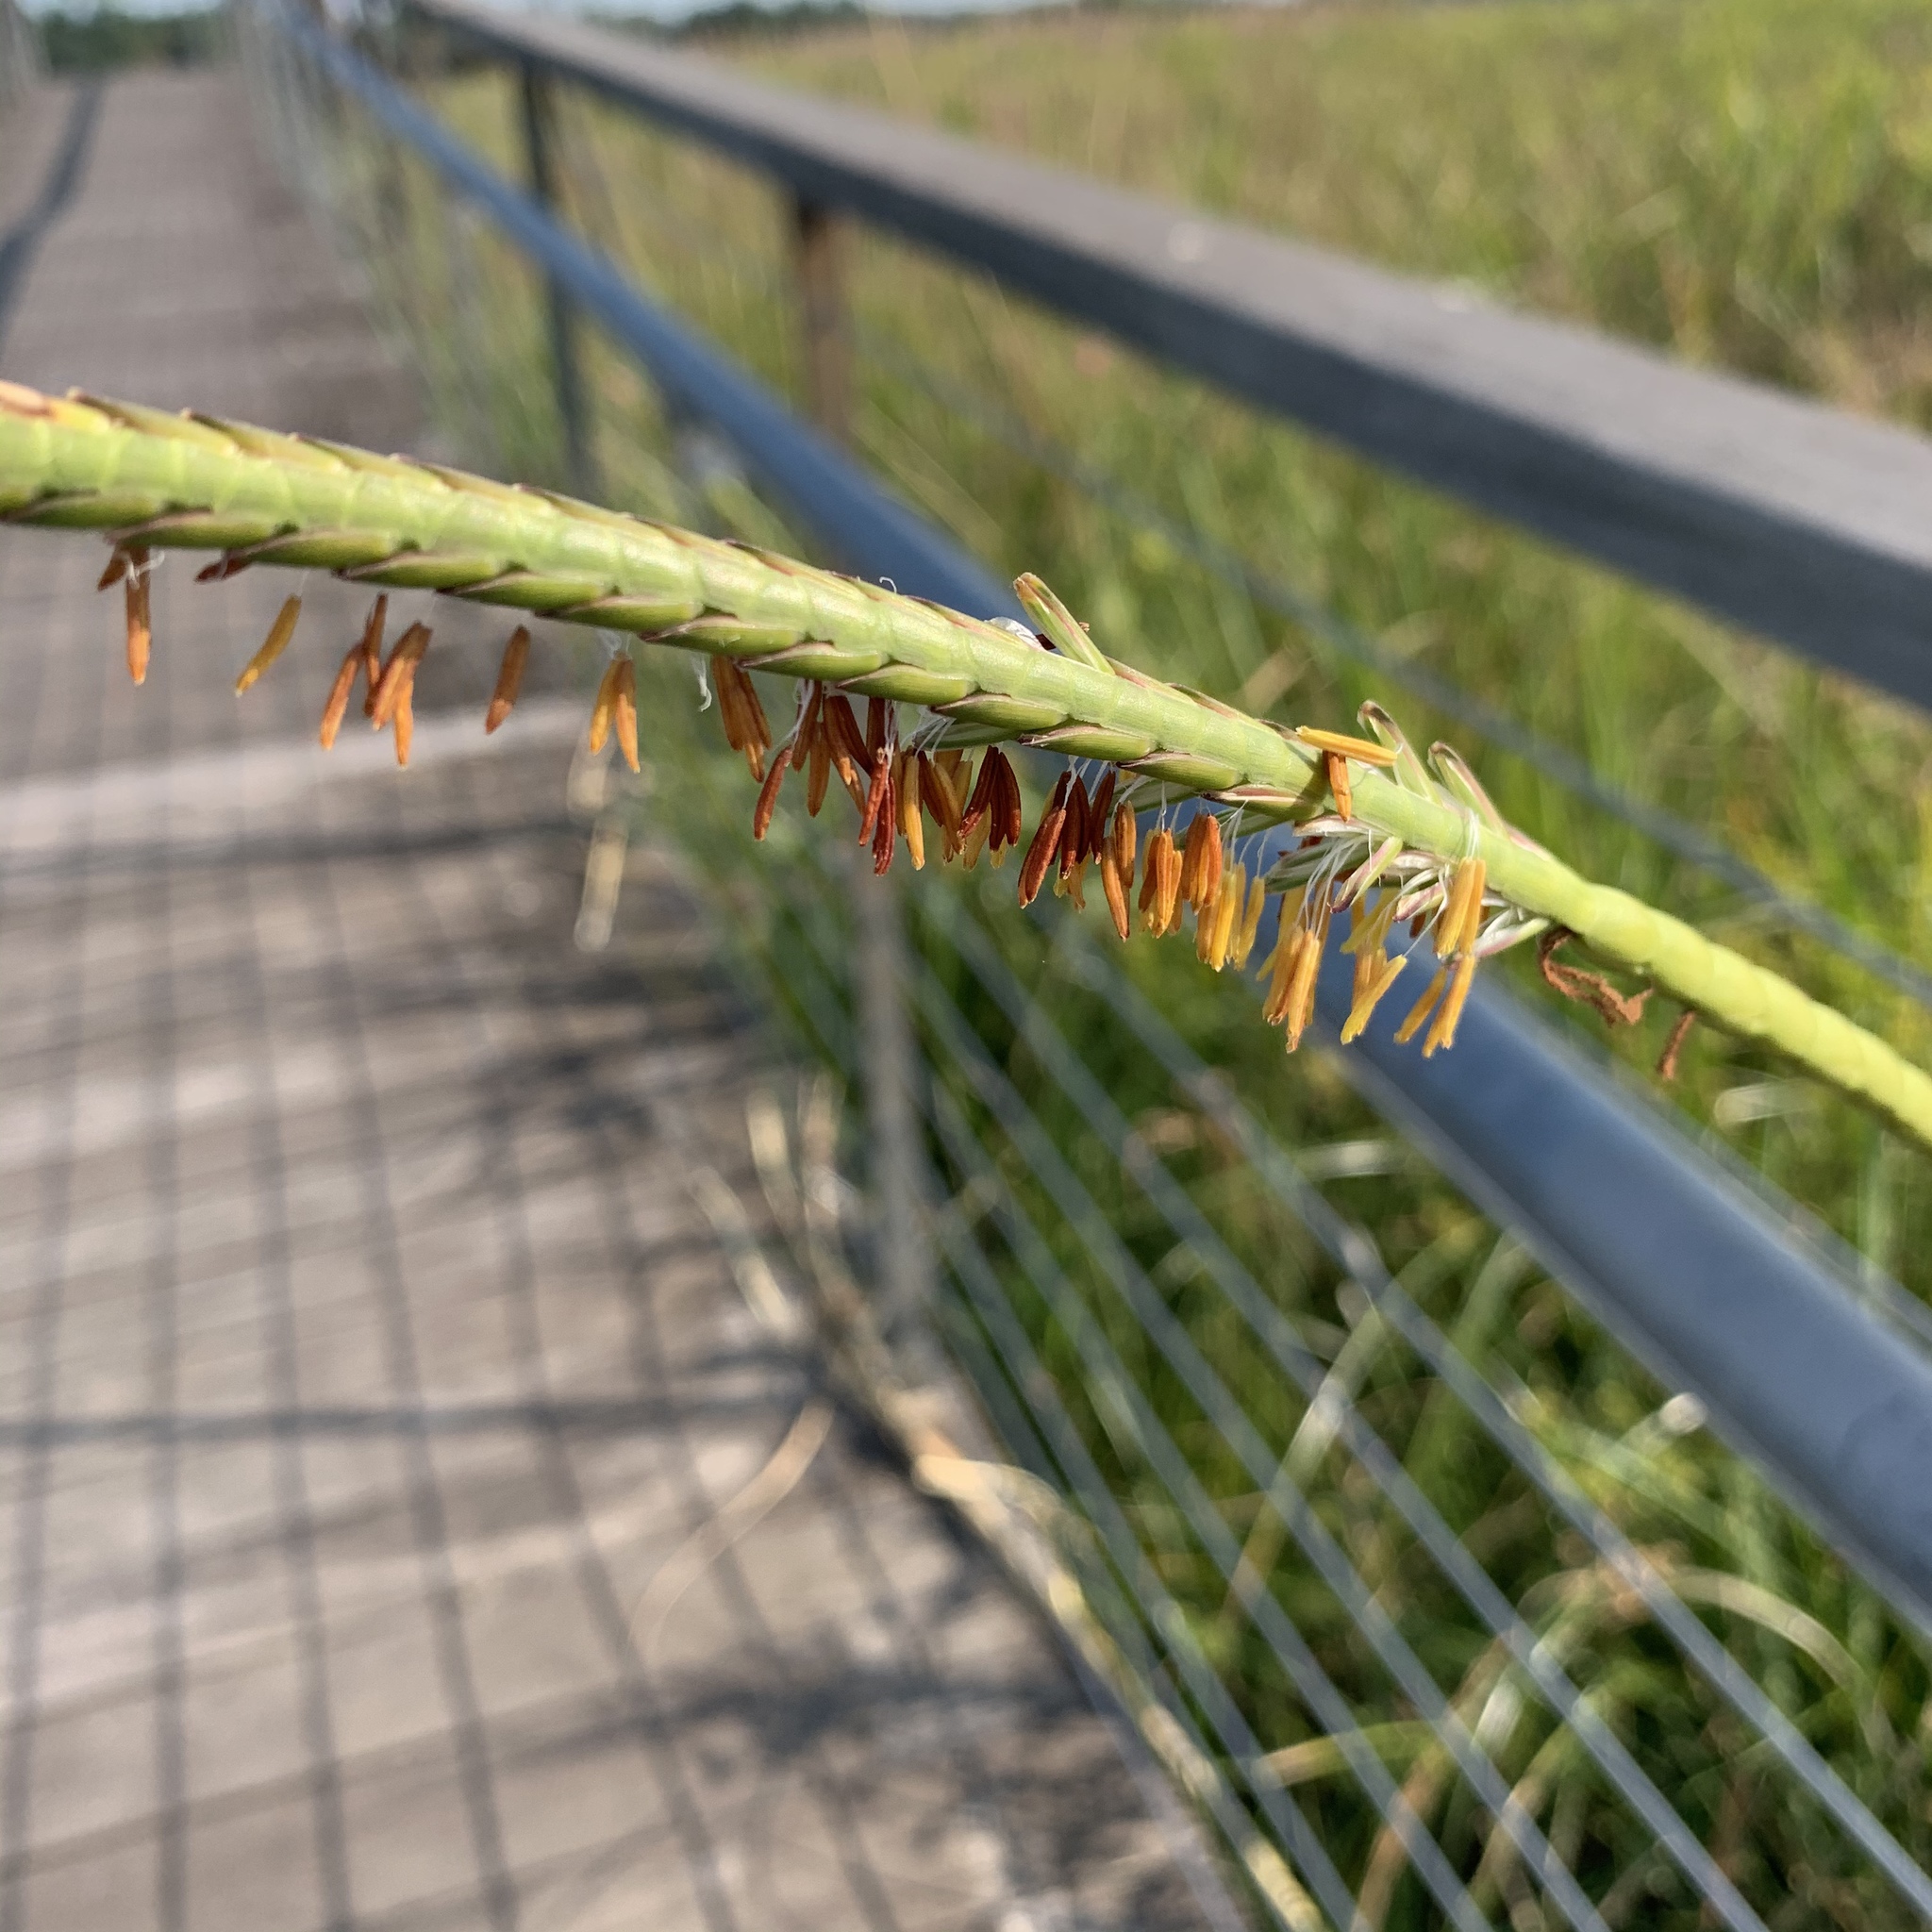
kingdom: Plantae
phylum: Tracheophyta
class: Liliopsida
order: Poales
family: Poaceae
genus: Tripsacum
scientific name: Tripsacum dactyloides
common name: Buffalo-grass
